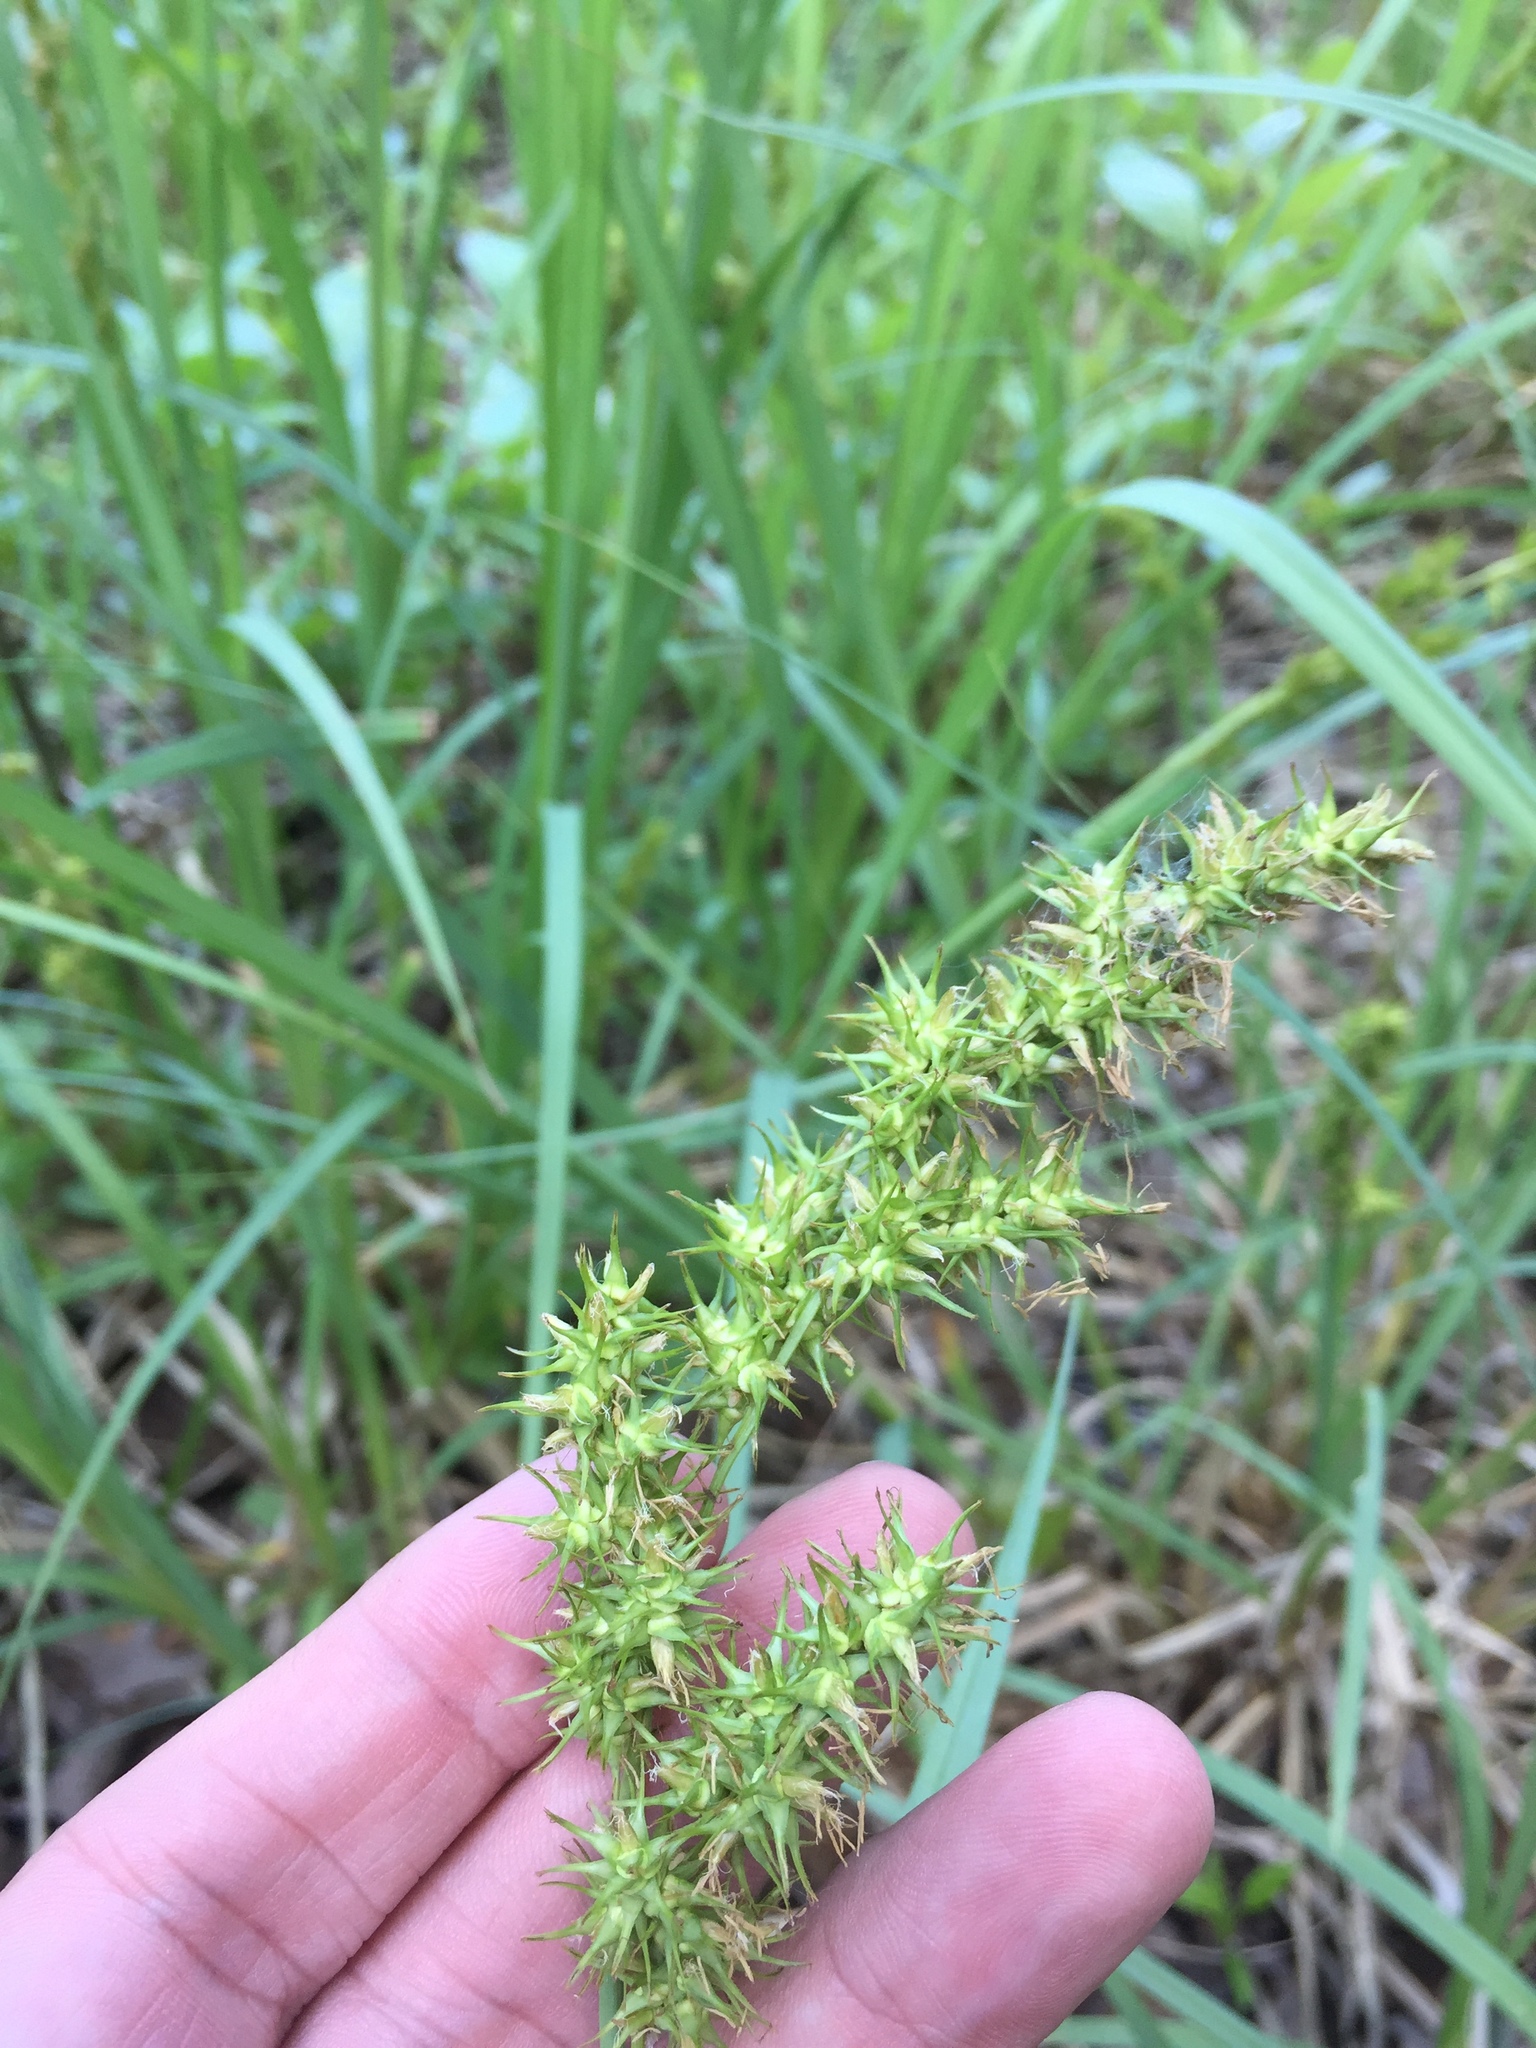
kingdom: Plantae
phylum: Tracheophyta
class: Liliopsida
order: Poales
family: Cyperaceae
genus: Carex
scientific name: Carex crus-corvi
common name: Crow-spur sedge
